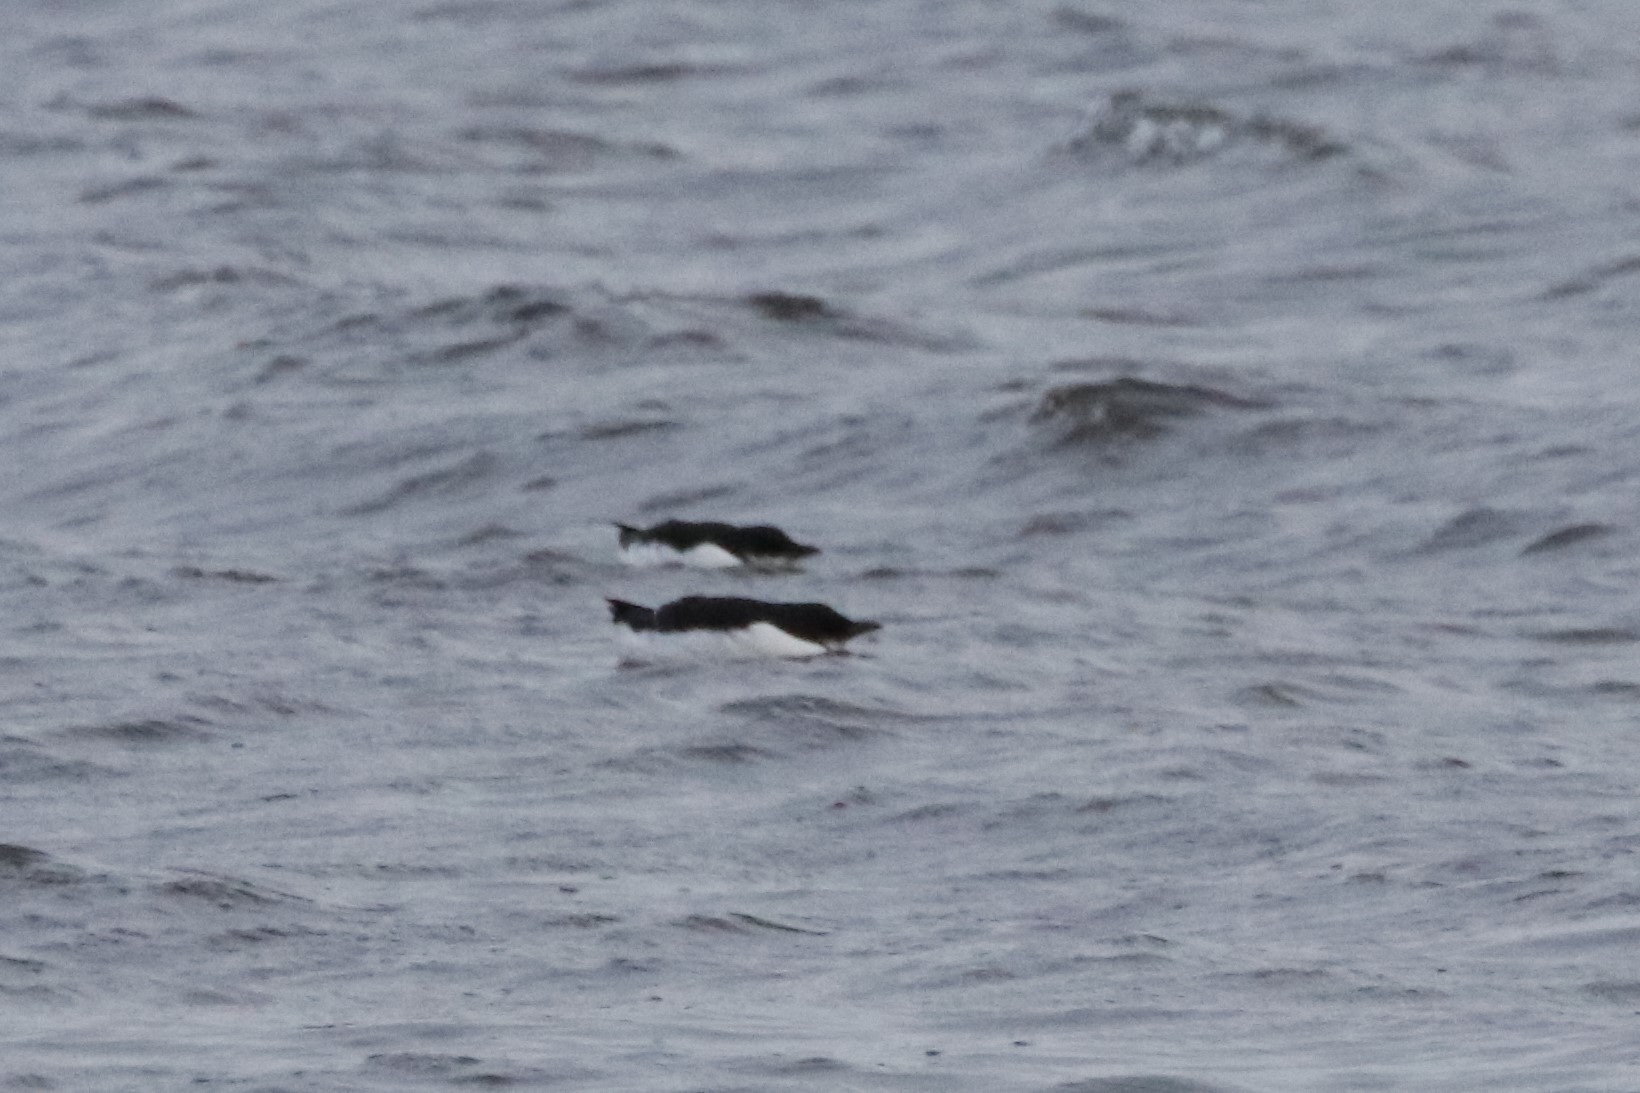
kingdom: Animalia
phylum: Chordata
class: Aves
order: Charadriiformes
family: Alcidae
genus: Uria
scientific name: Uria lomvia
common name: Thick-billed murre
